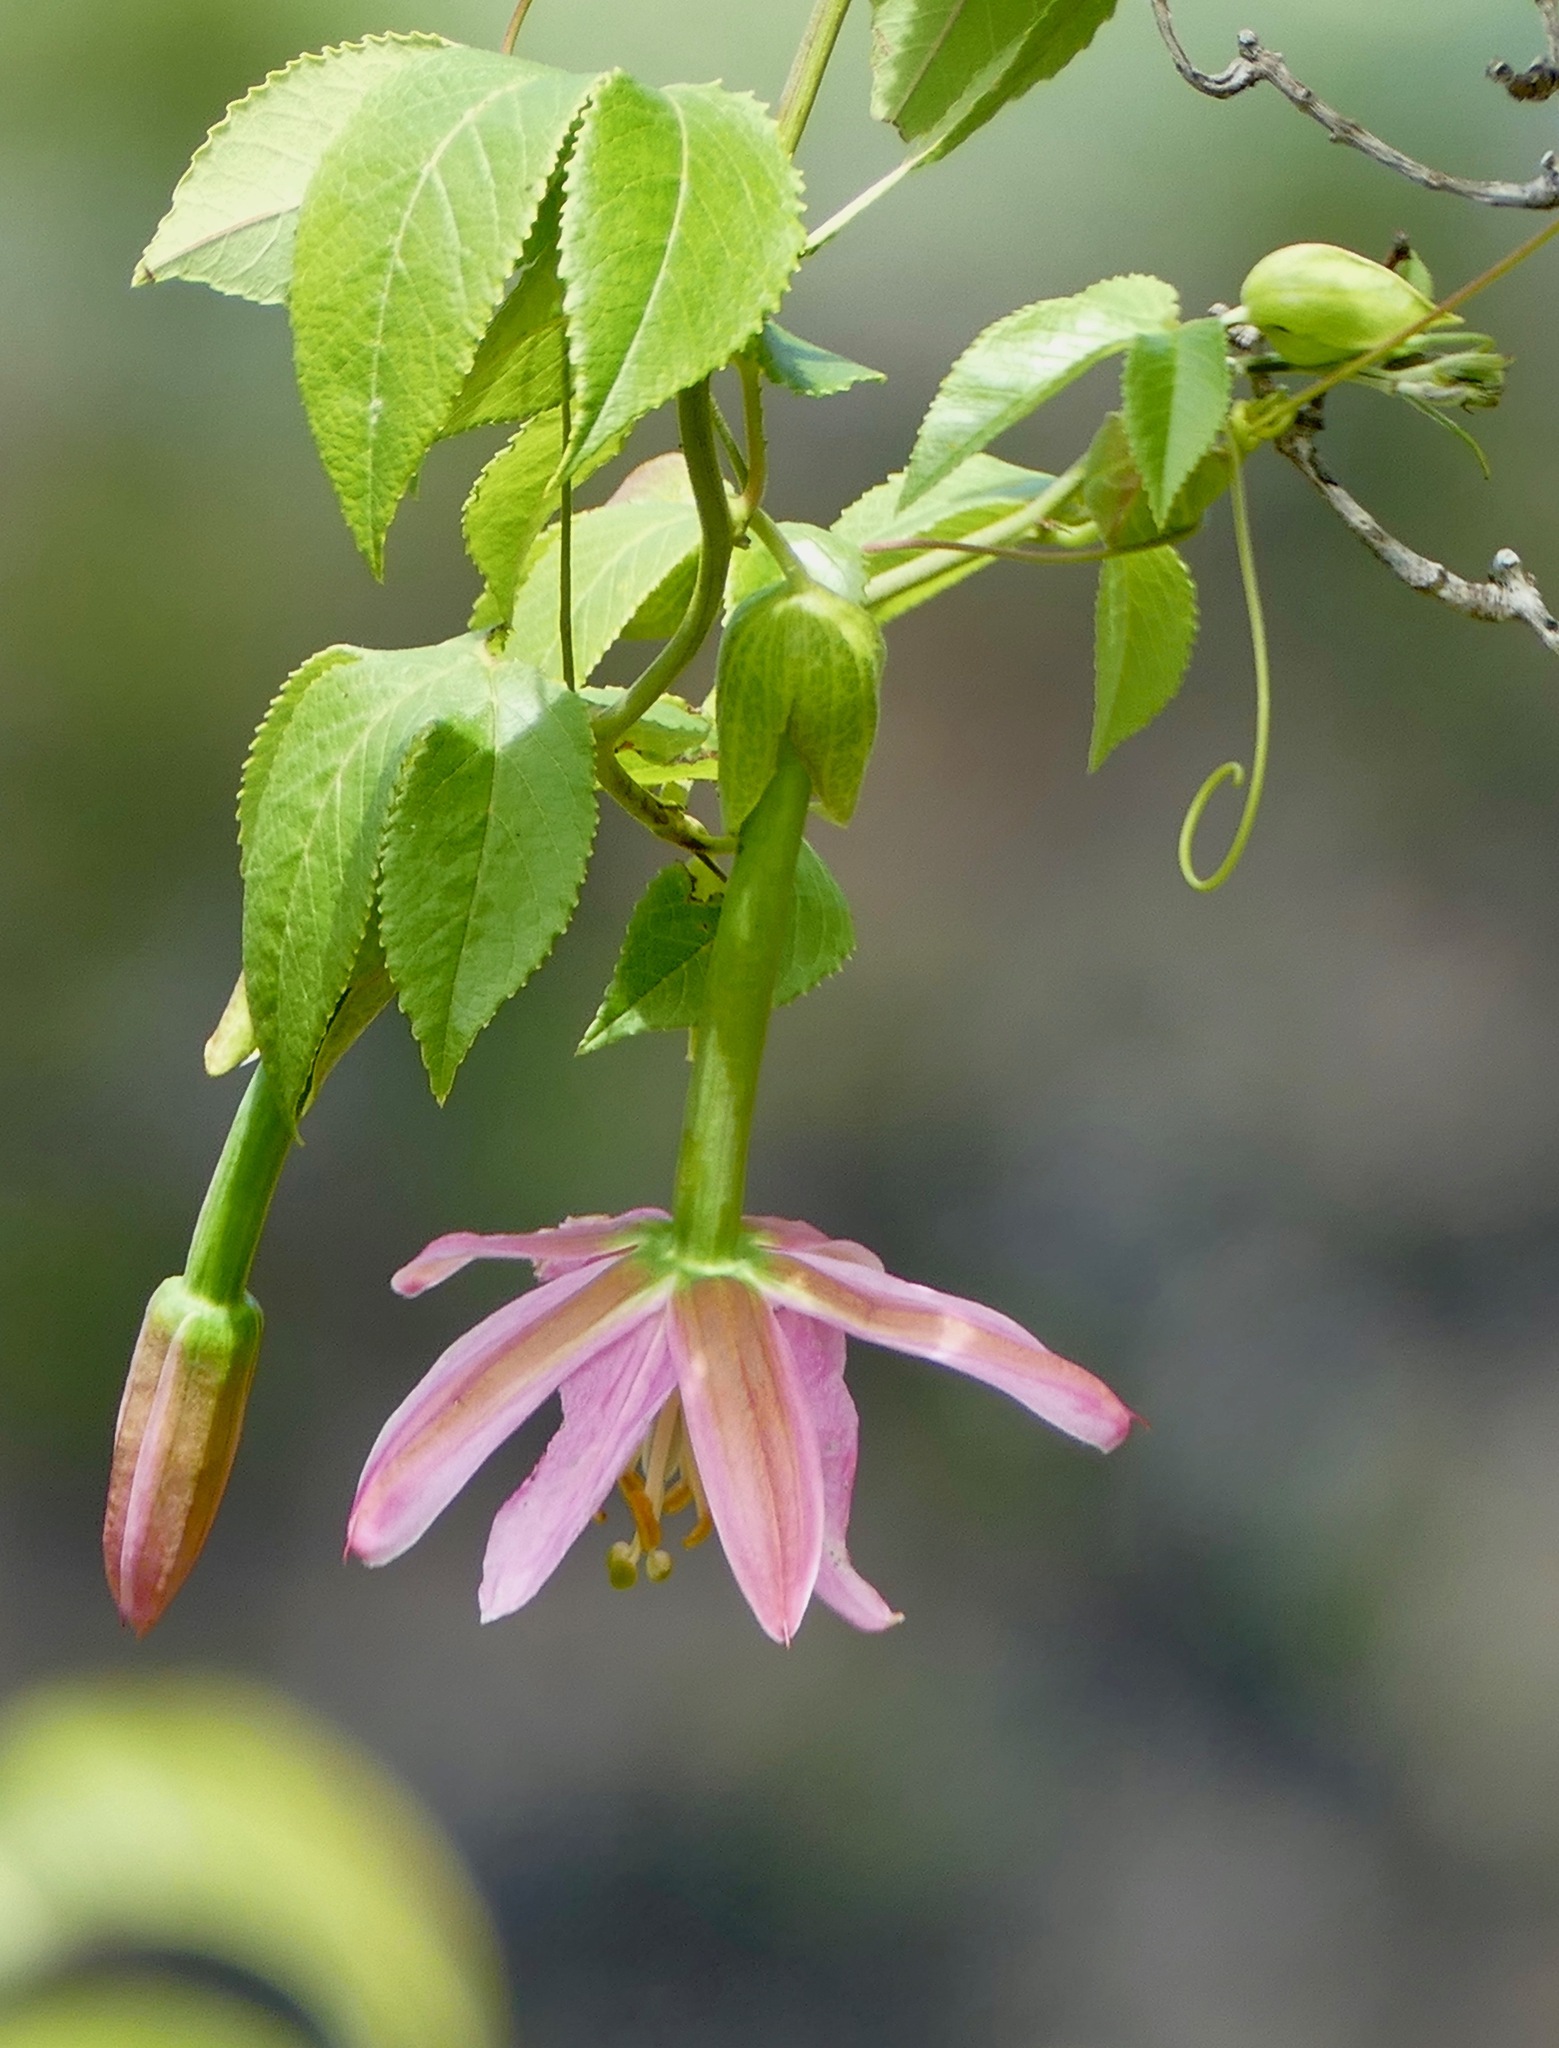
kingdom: Plantae
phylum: Tracheophyta
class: Magnoliopsida
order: Malpighiales
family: Passifloraceae
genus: Passiflora
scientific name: Passiflora tarminiana
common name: Banana poka
